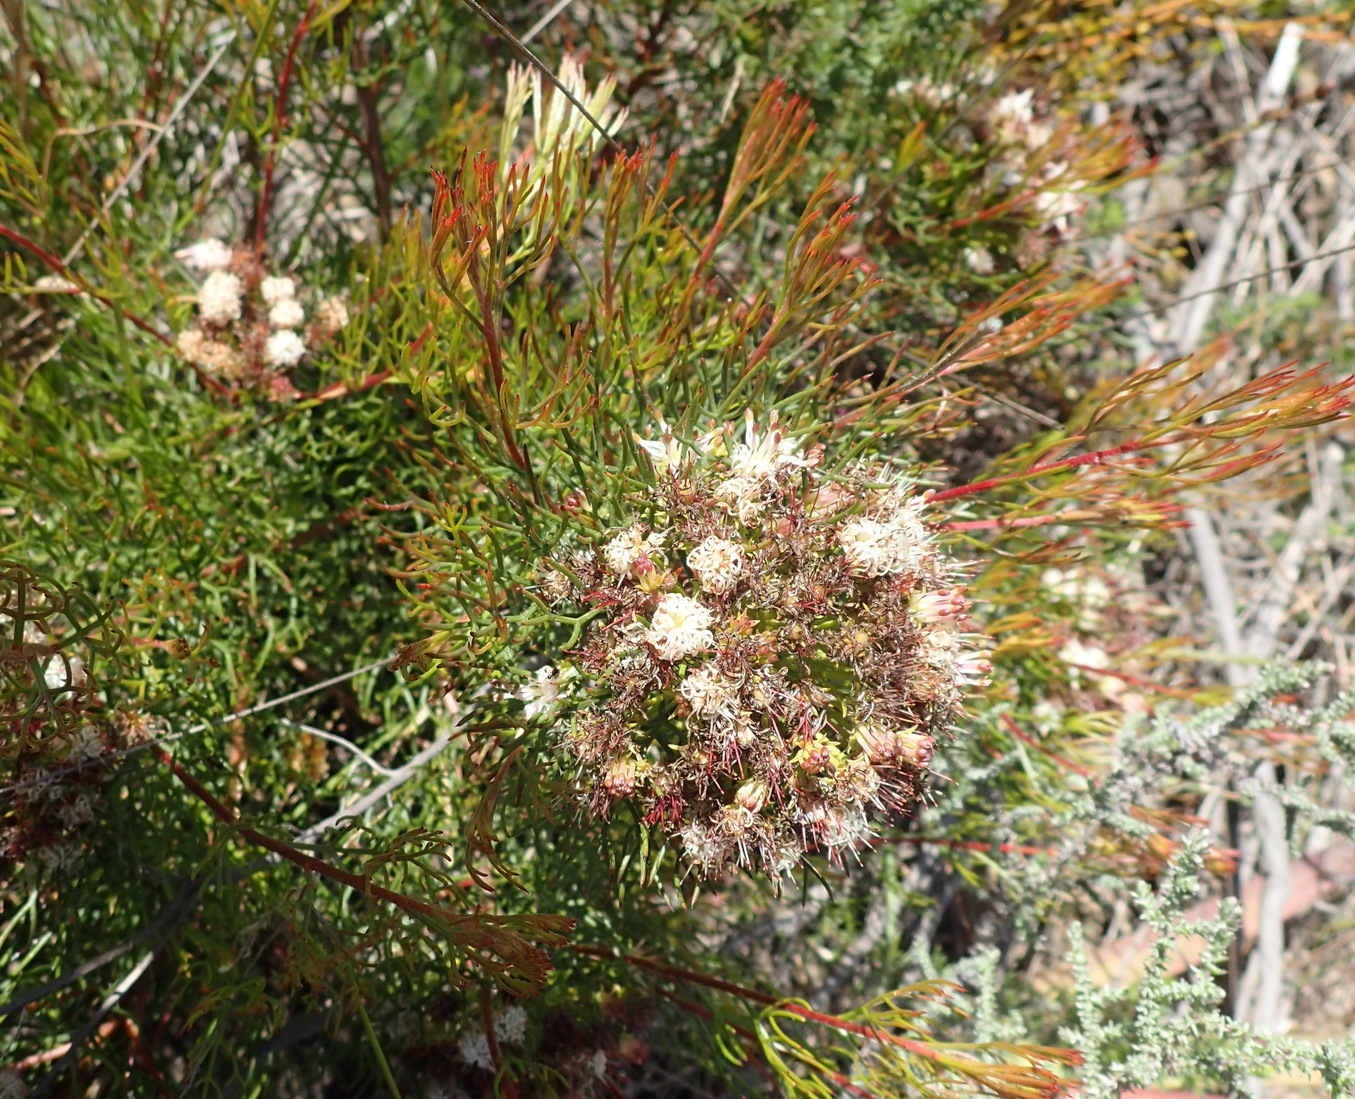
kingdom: Plantae
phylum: Tracheophyta
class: Magnoliopsida
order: Proteales
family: Proteaceae
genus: Serruria
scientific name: Serruria fasciflora
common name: Common pin spiderhead
